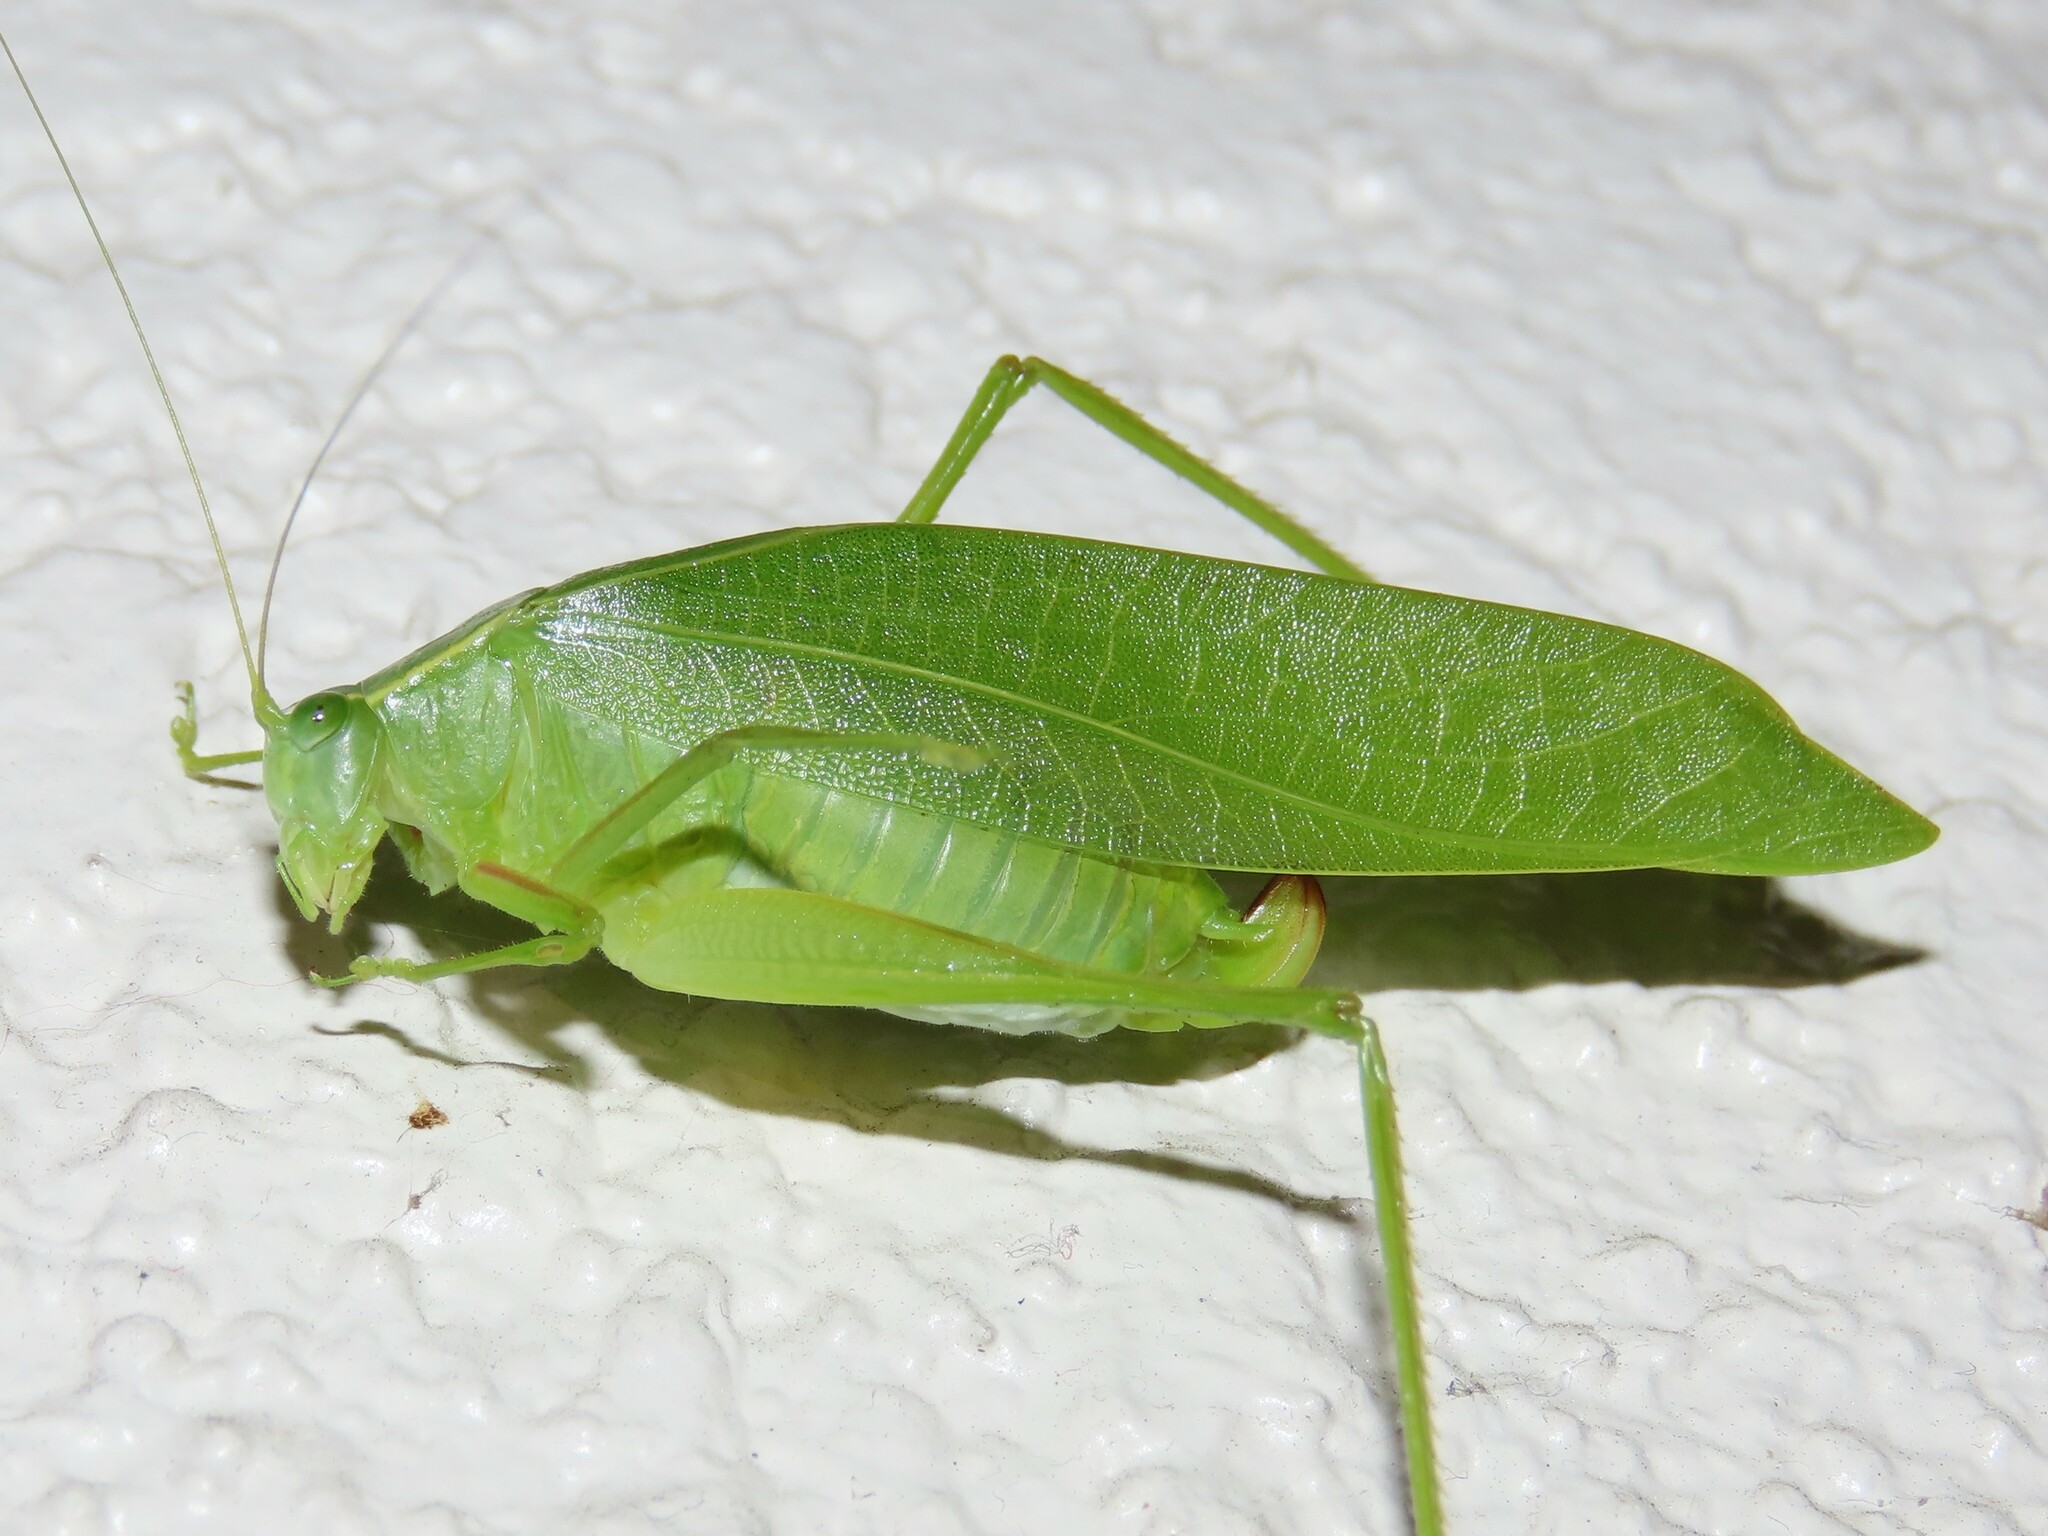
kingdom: Animalia
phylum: Arthropoda
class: Insecta
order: Orthoptera
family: Tettigoniidae
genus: Turpilia
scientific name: Turpilia rostrata
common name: Narrow-beaked katydid
